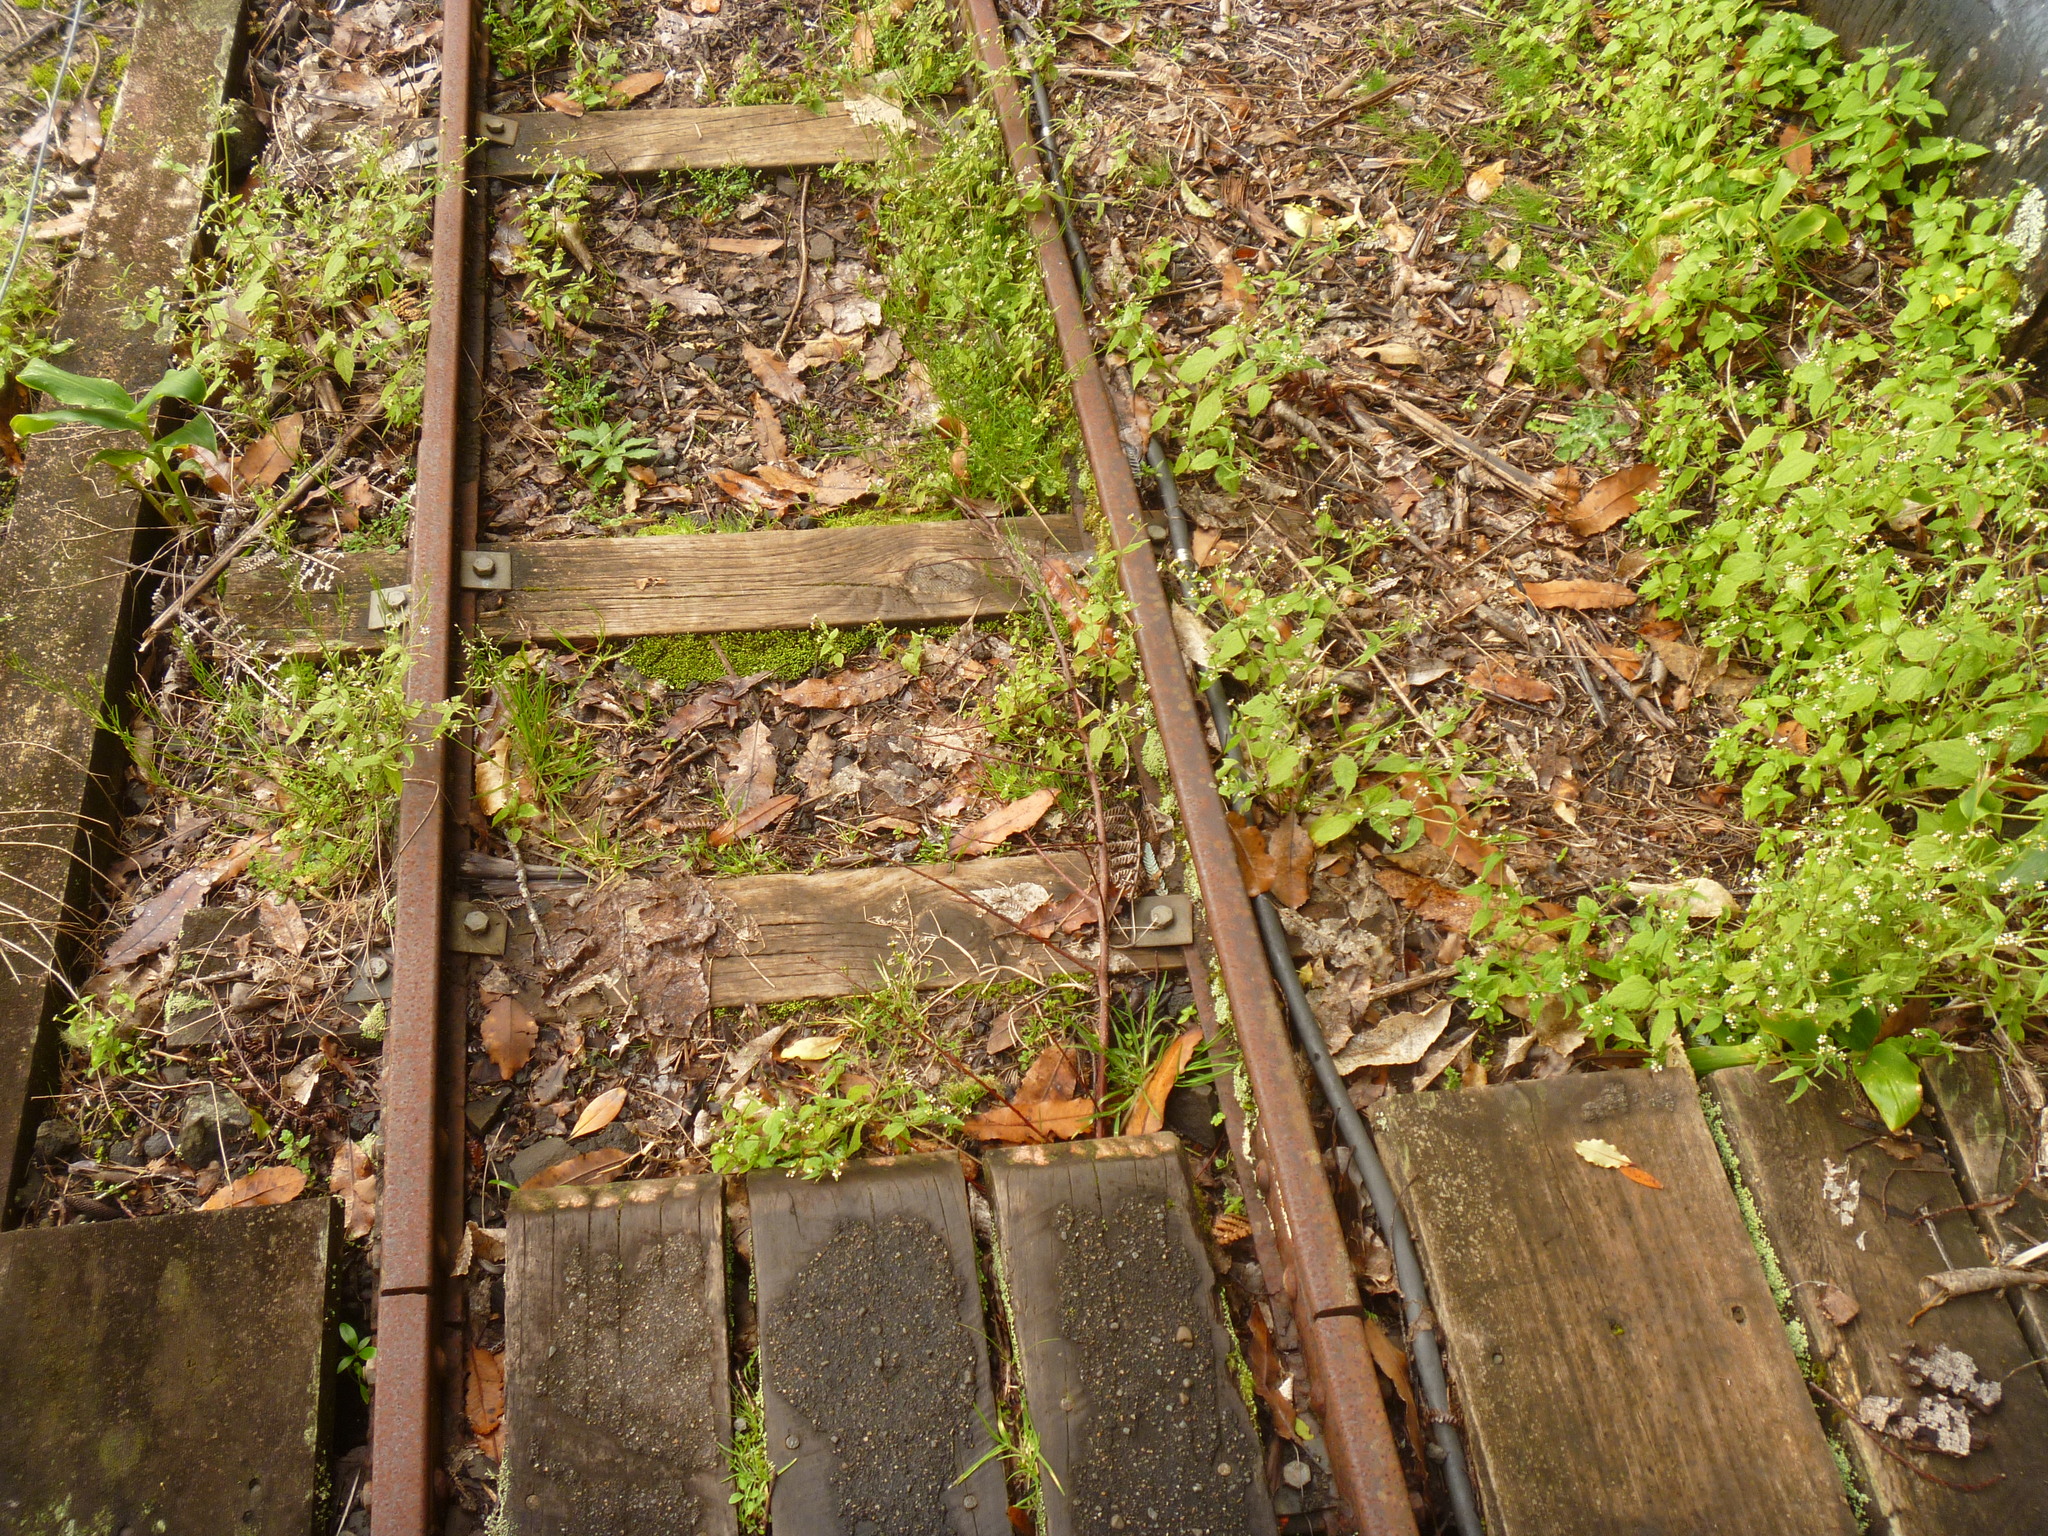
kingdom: Plantae
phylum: Tracheophyta
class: Magnoliopsida
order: Asterales
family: Asteraceae
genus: Galinsoga
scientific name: Galinsoga quadriradiata
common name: Shaggy soldier
